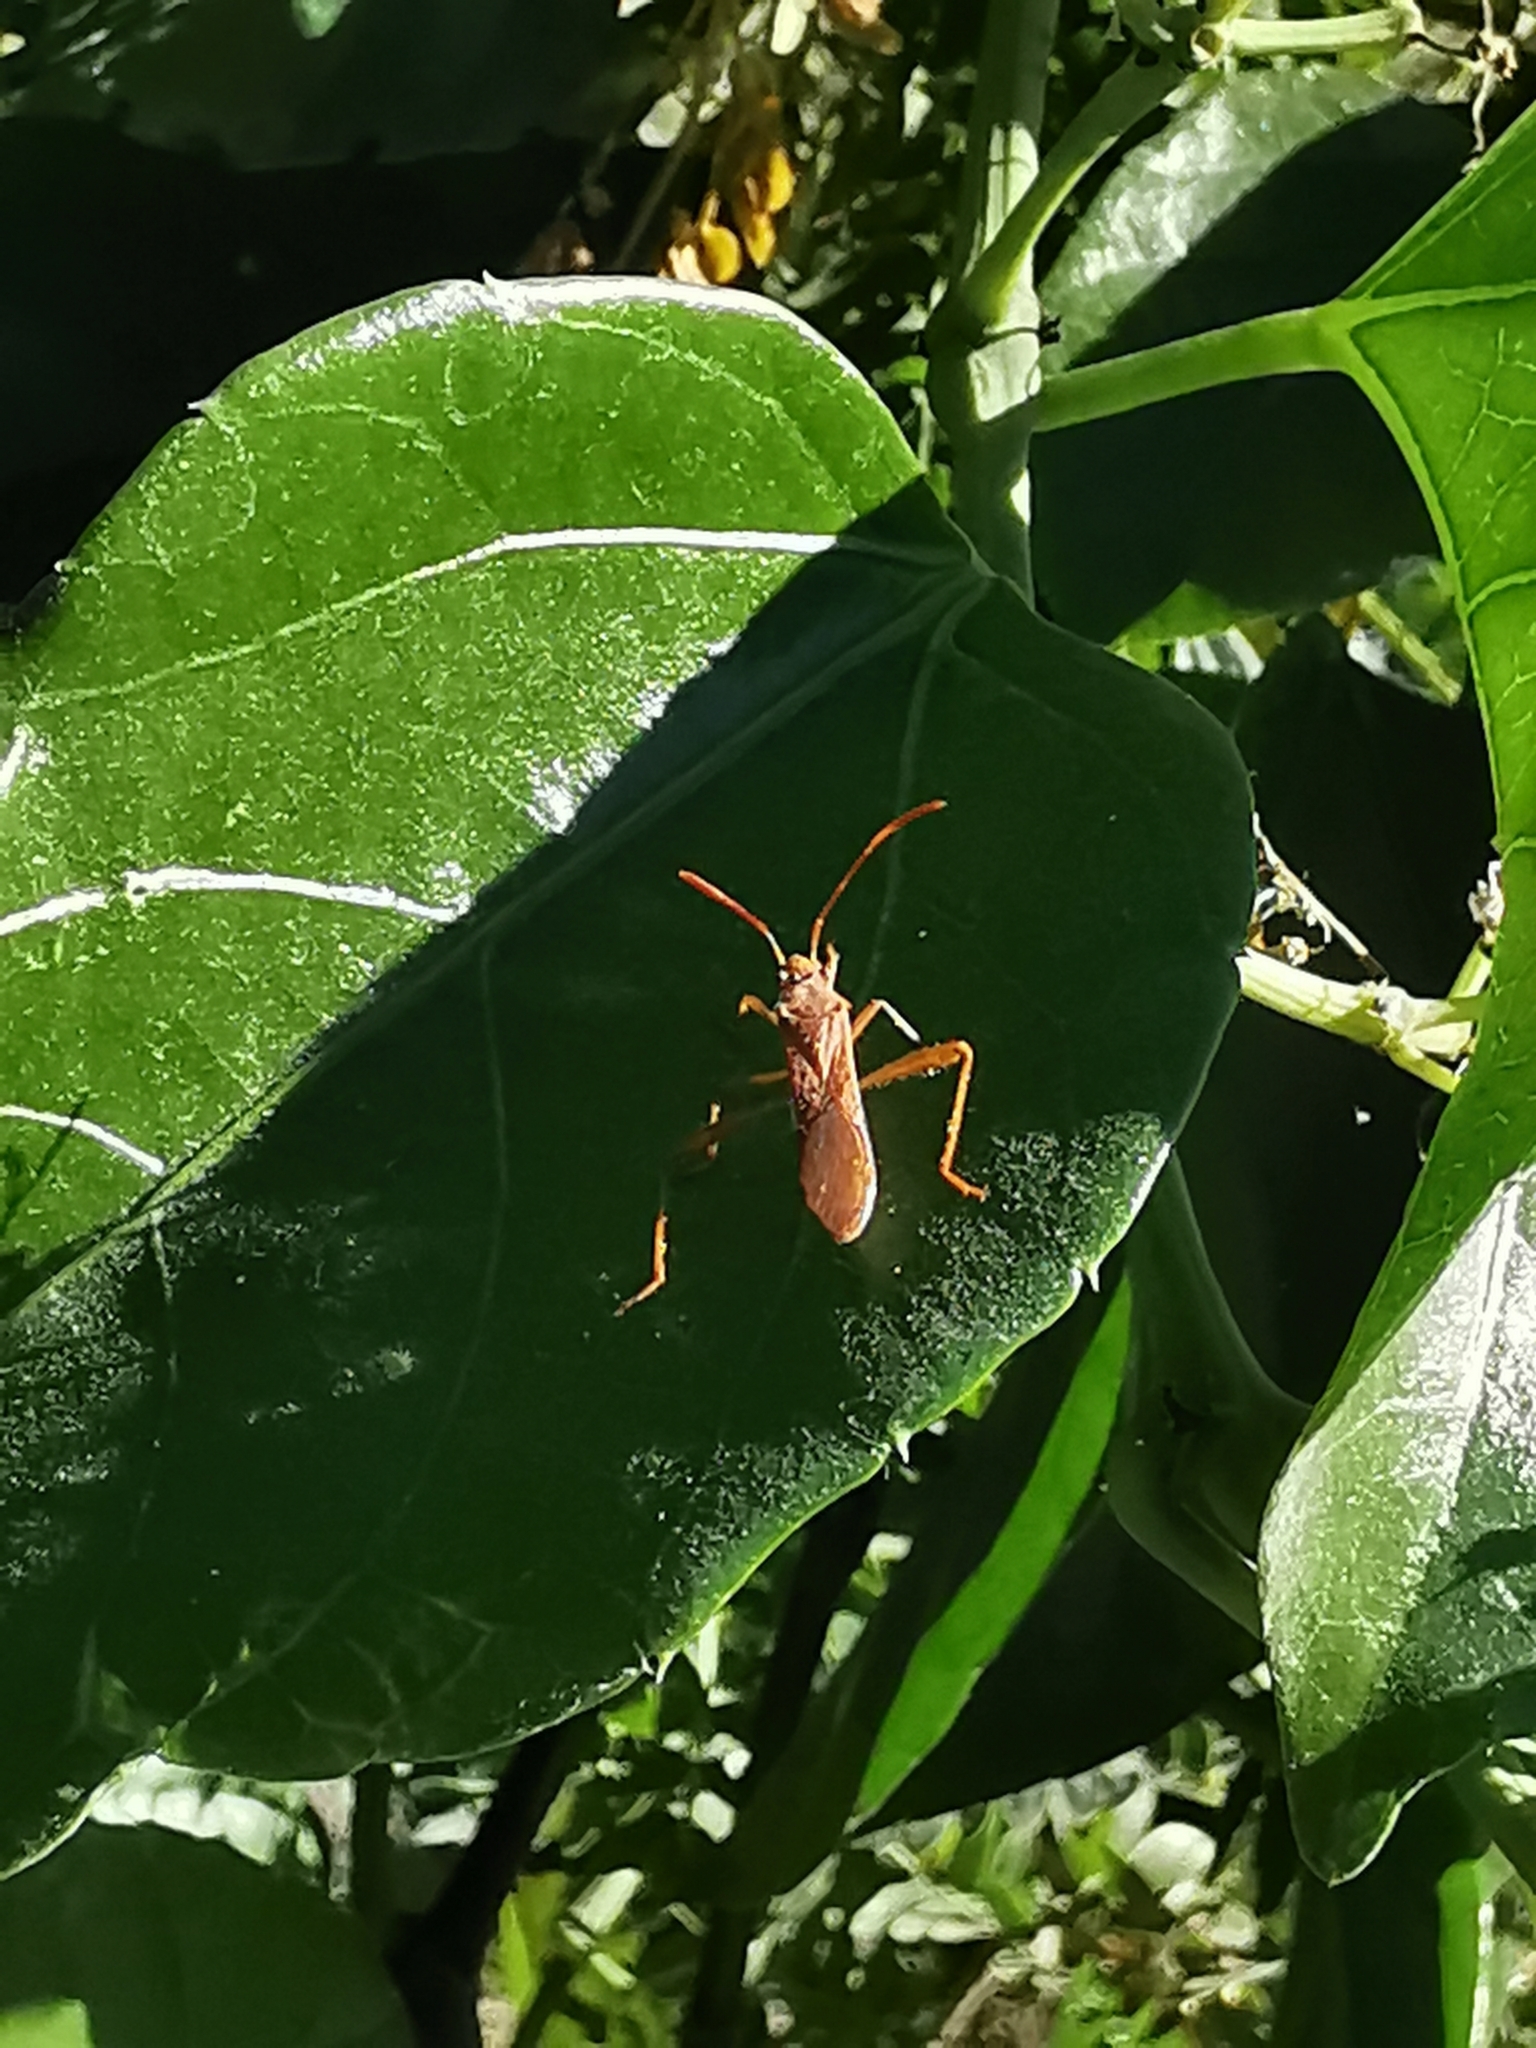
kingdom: Animalia
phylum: Arthropoda
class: Insecta
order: Hemiptera
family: Alydidae
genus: Burtinus
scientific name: Burtinus notatipennis
